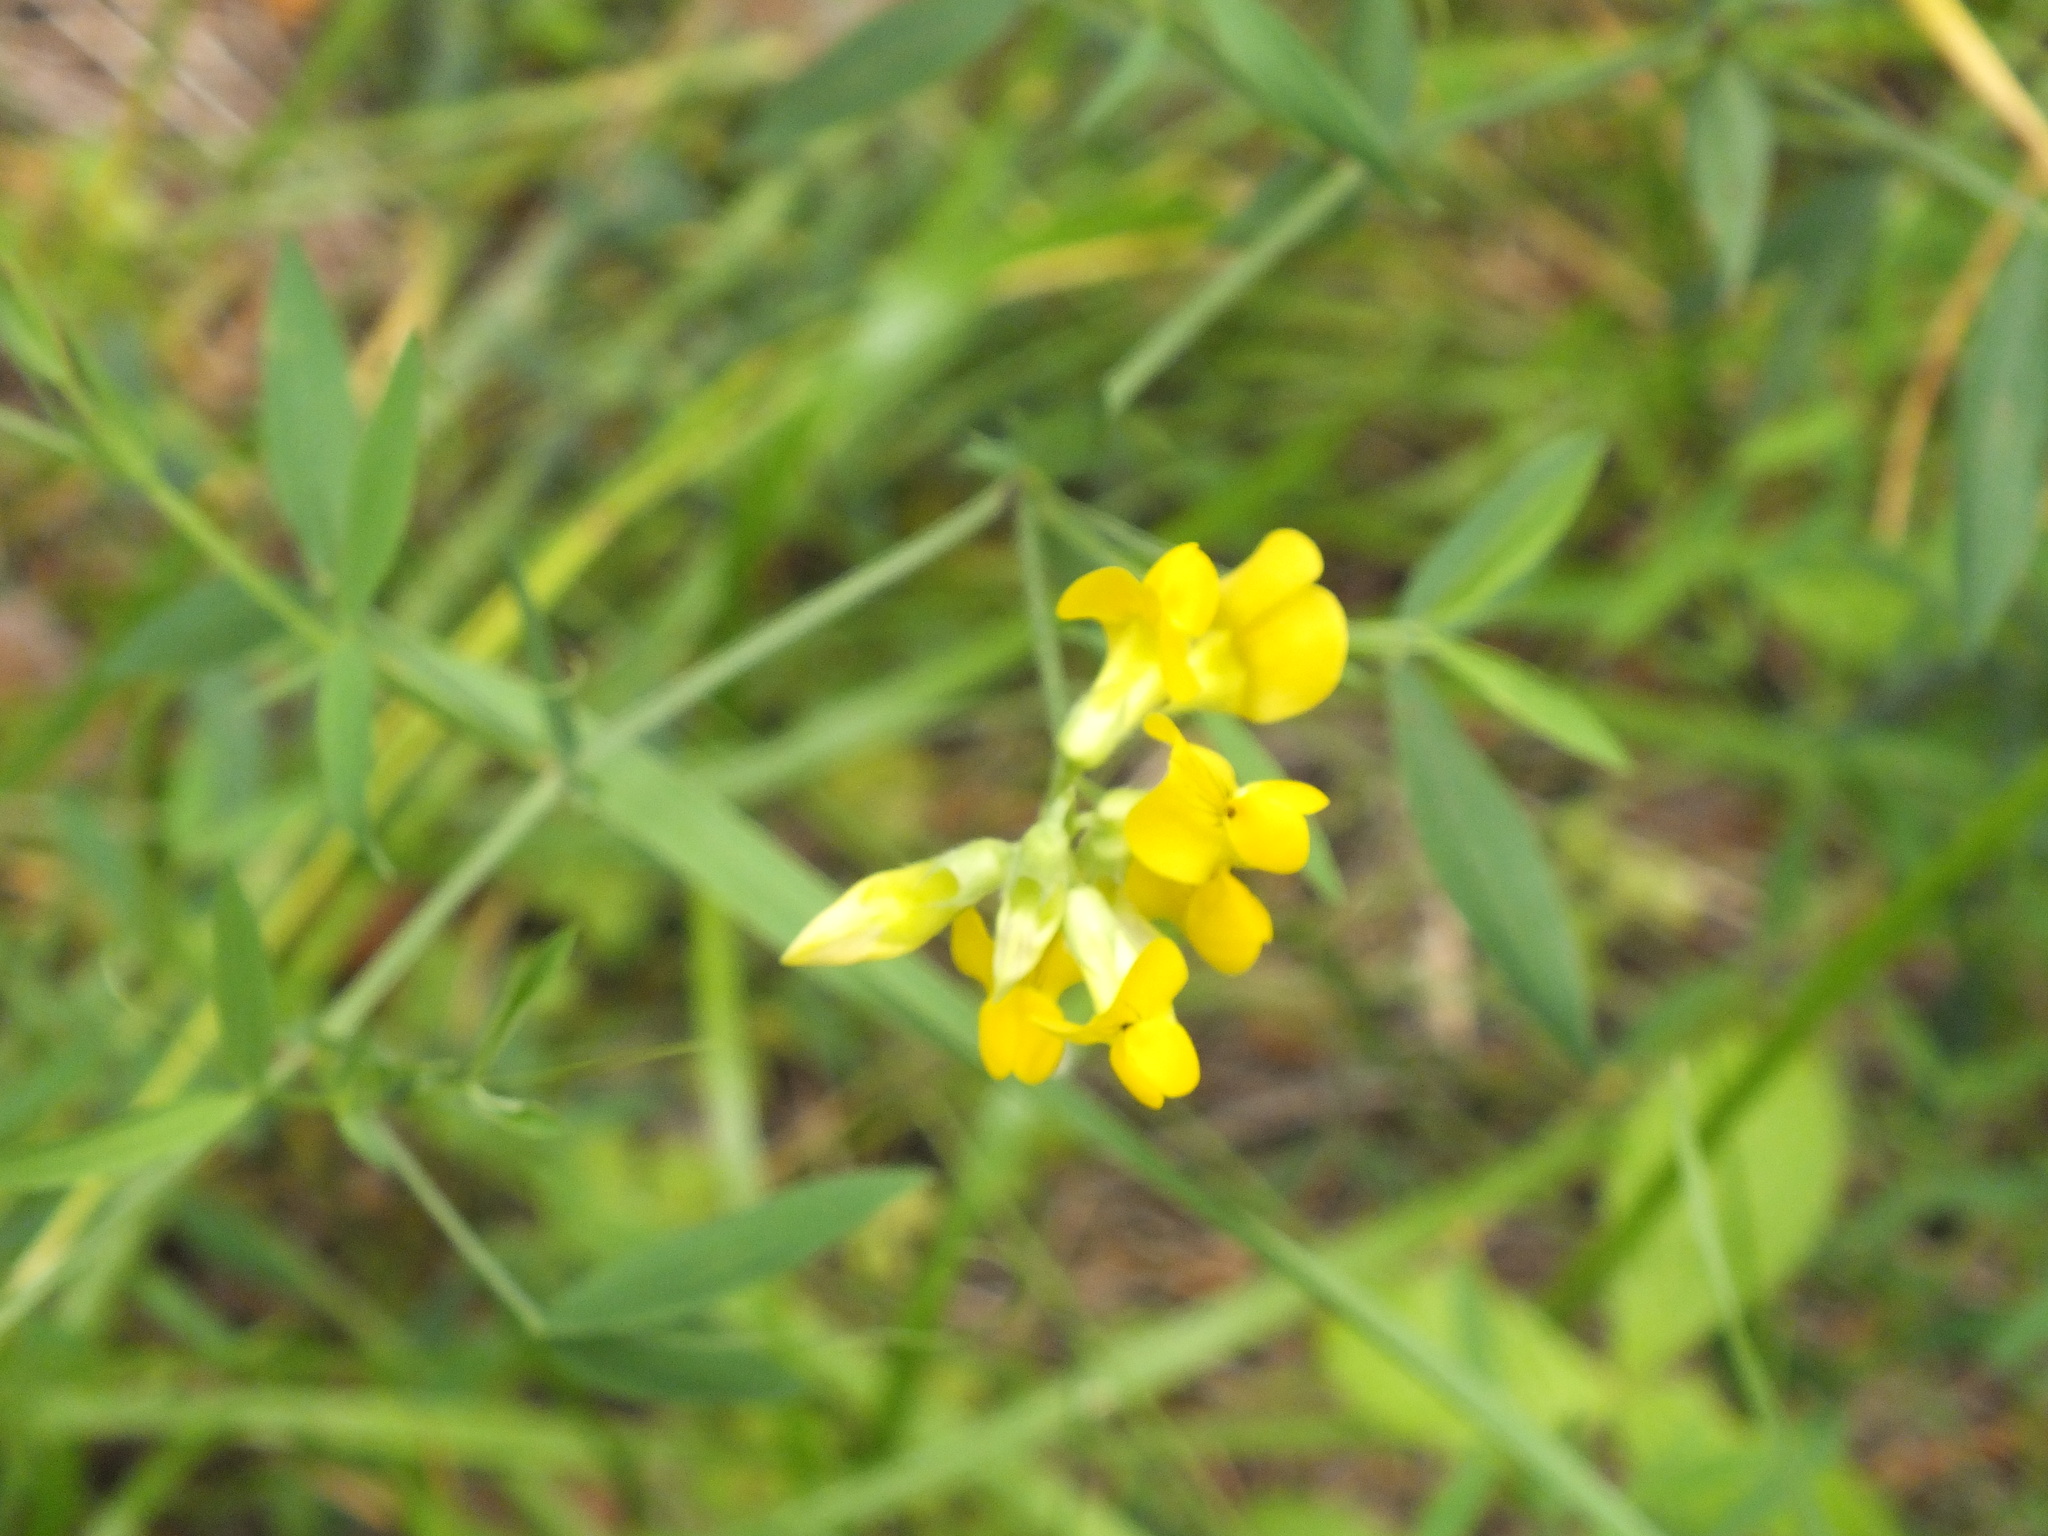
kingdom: Plantae
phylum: Tracheophyta
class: Magnoliopsida
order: Fabales
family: Fabaceae
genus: Lathyrus
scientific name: Lathyrus pratensis
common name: Meadow vetchling
